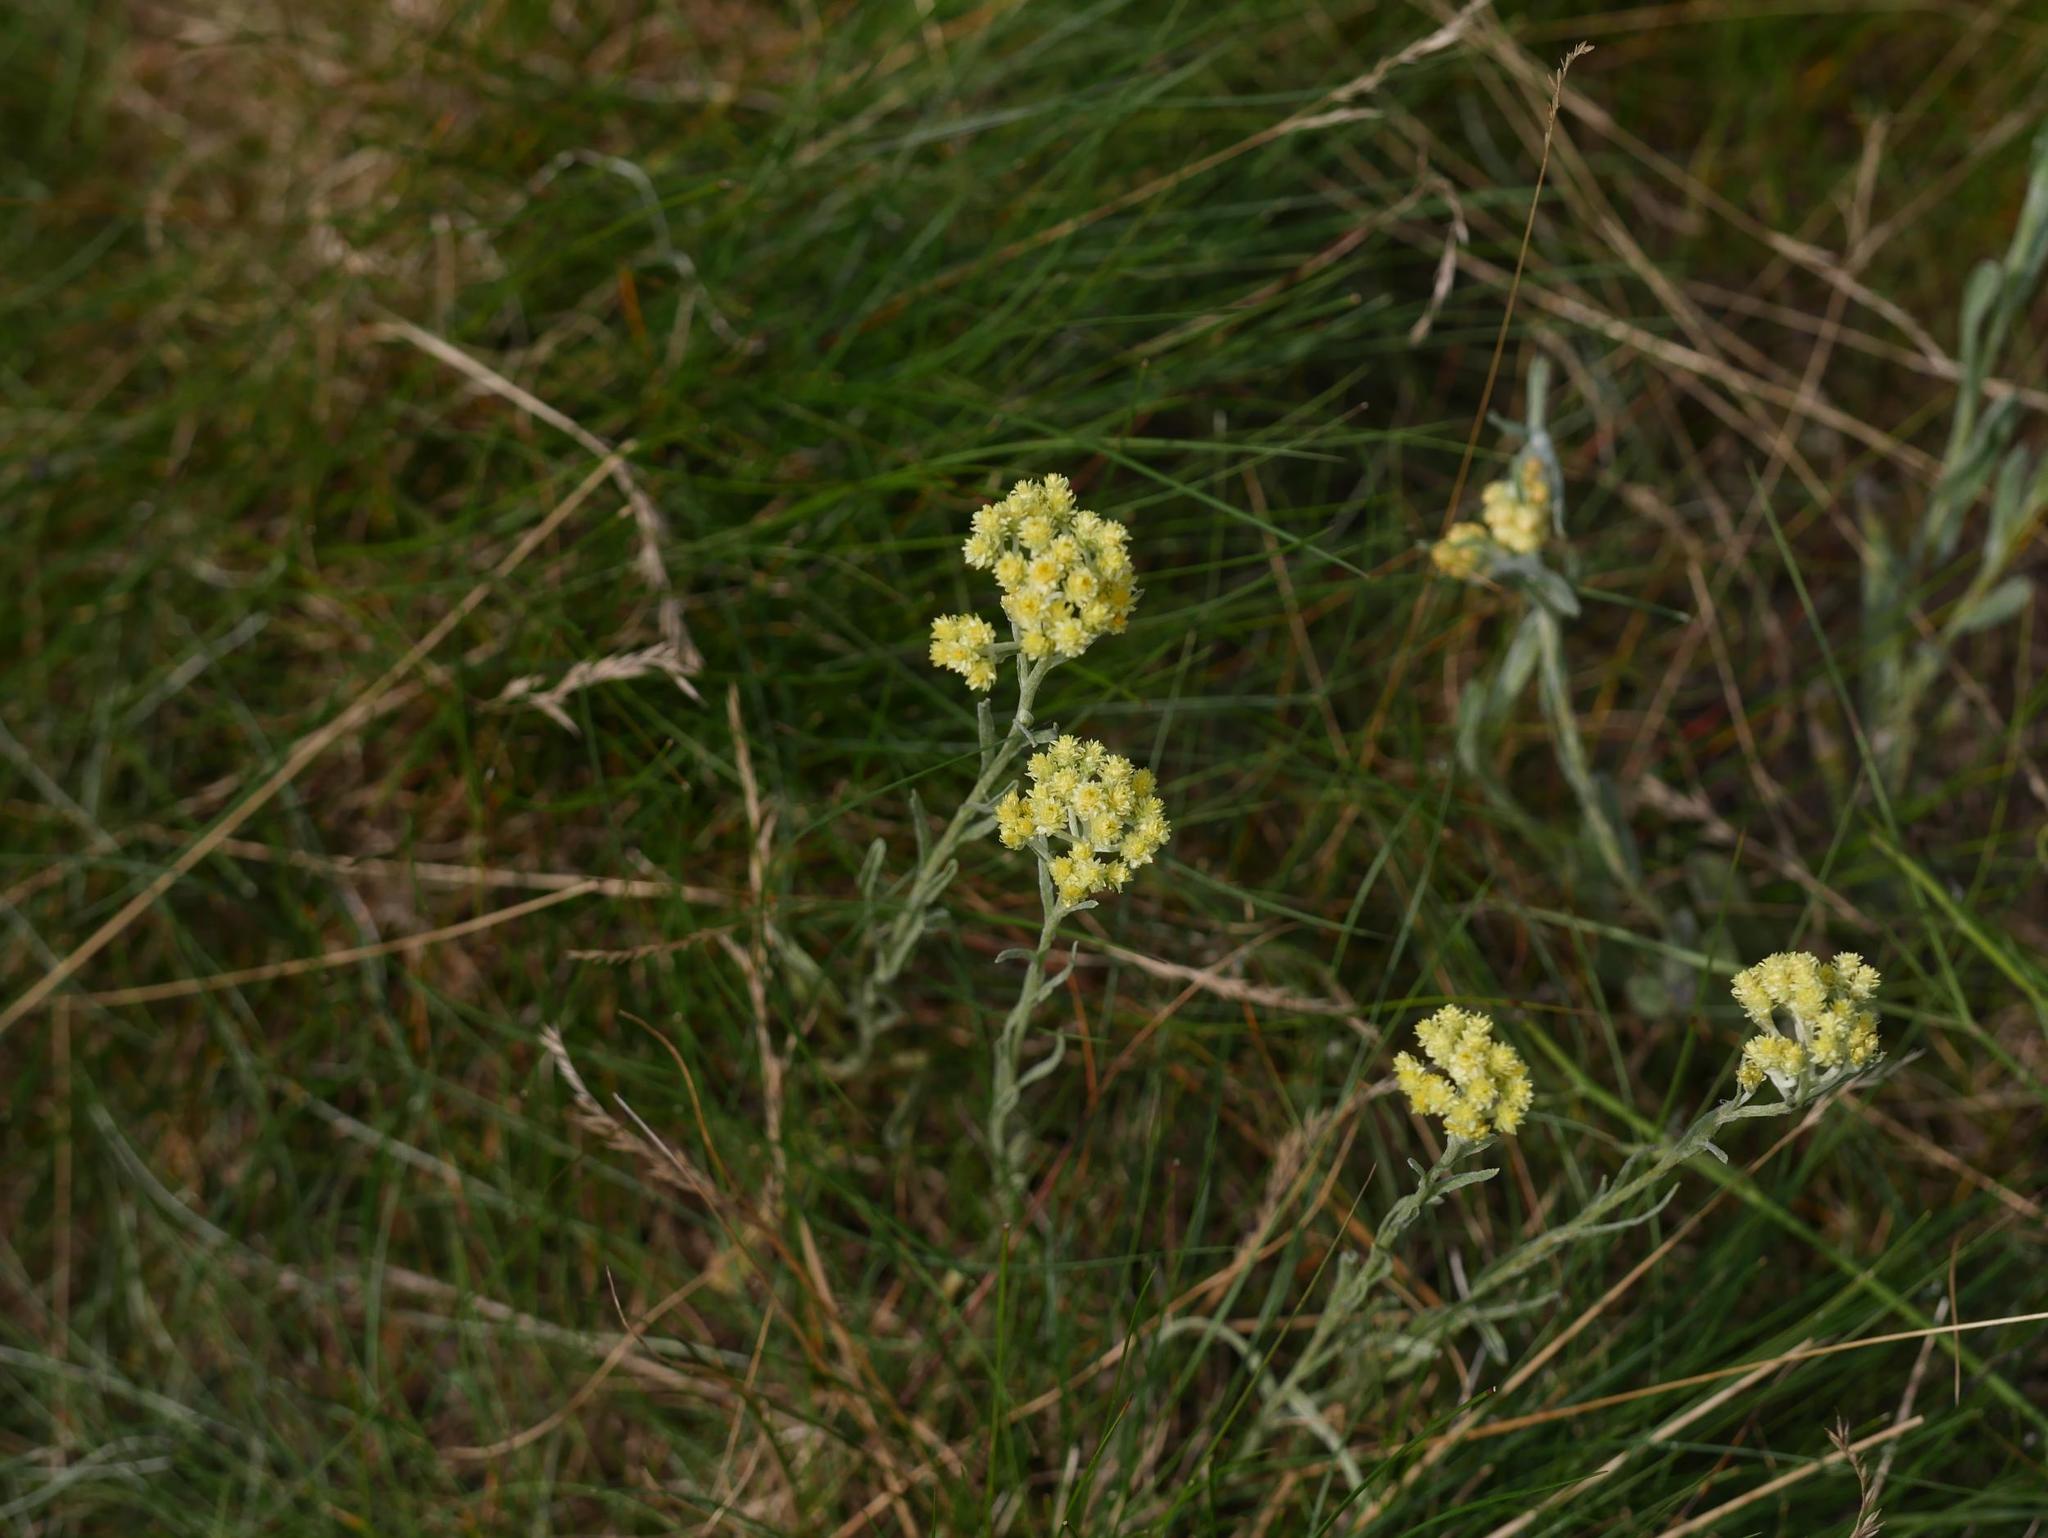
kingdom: Plantae
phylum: Tracheophyta
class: Magnoliopsida
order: Asterales
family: Asteraceae
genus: Helichrysum
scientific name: Helichrysum arenarium
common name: Strawflower
